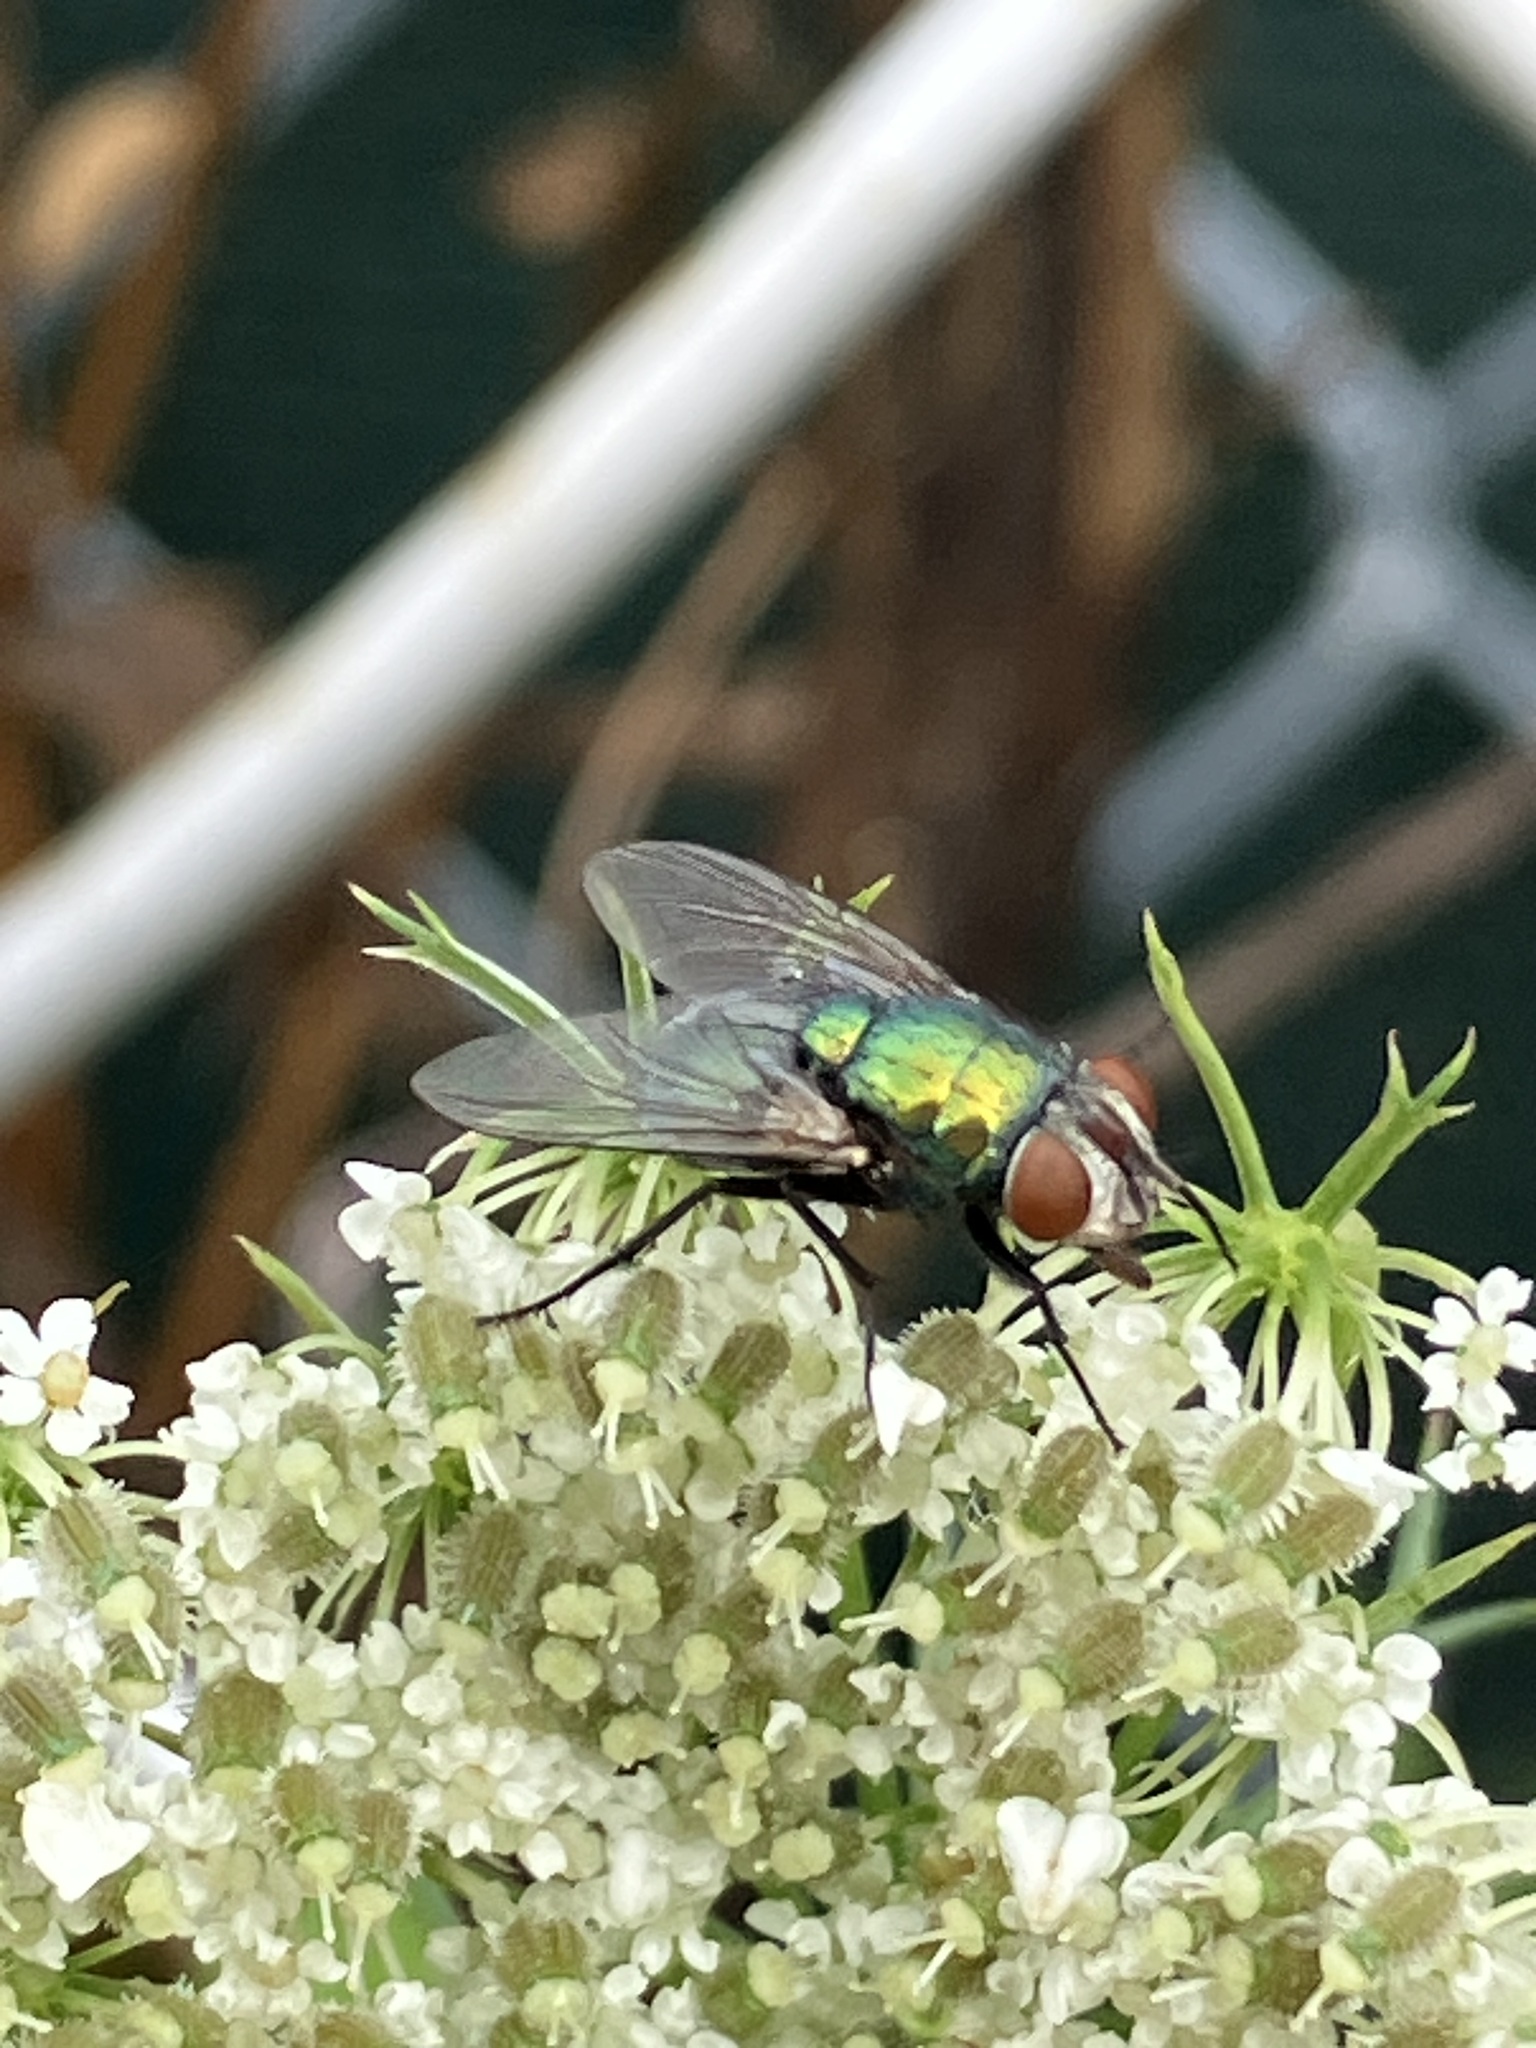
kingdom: Animalia
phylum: Arthropoda
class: Insecta
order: Diptera
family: Calliphoridae
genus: Lucilia
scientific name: Lucilia sericata
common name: Blow fly
